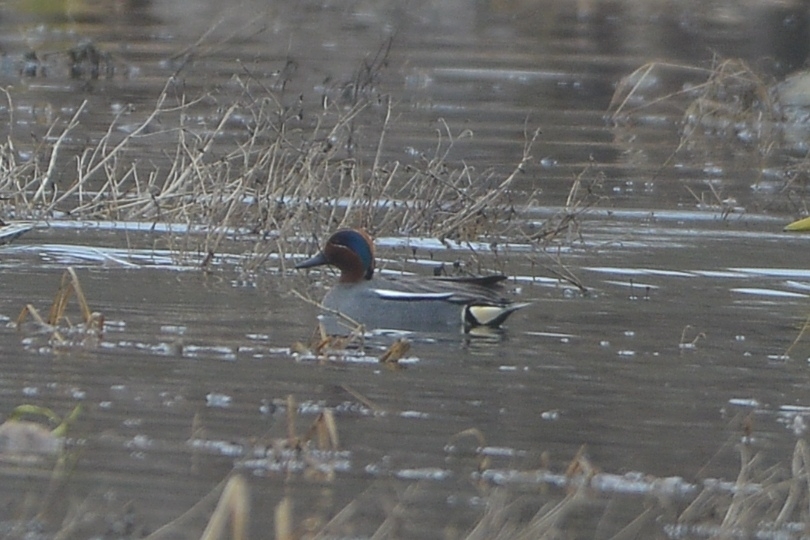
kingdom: Animalia
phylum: Chordata
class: Aves
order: Anseriformes
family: Anatidae
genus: Anas
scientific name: Anas crecca
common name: Eurasian teal
